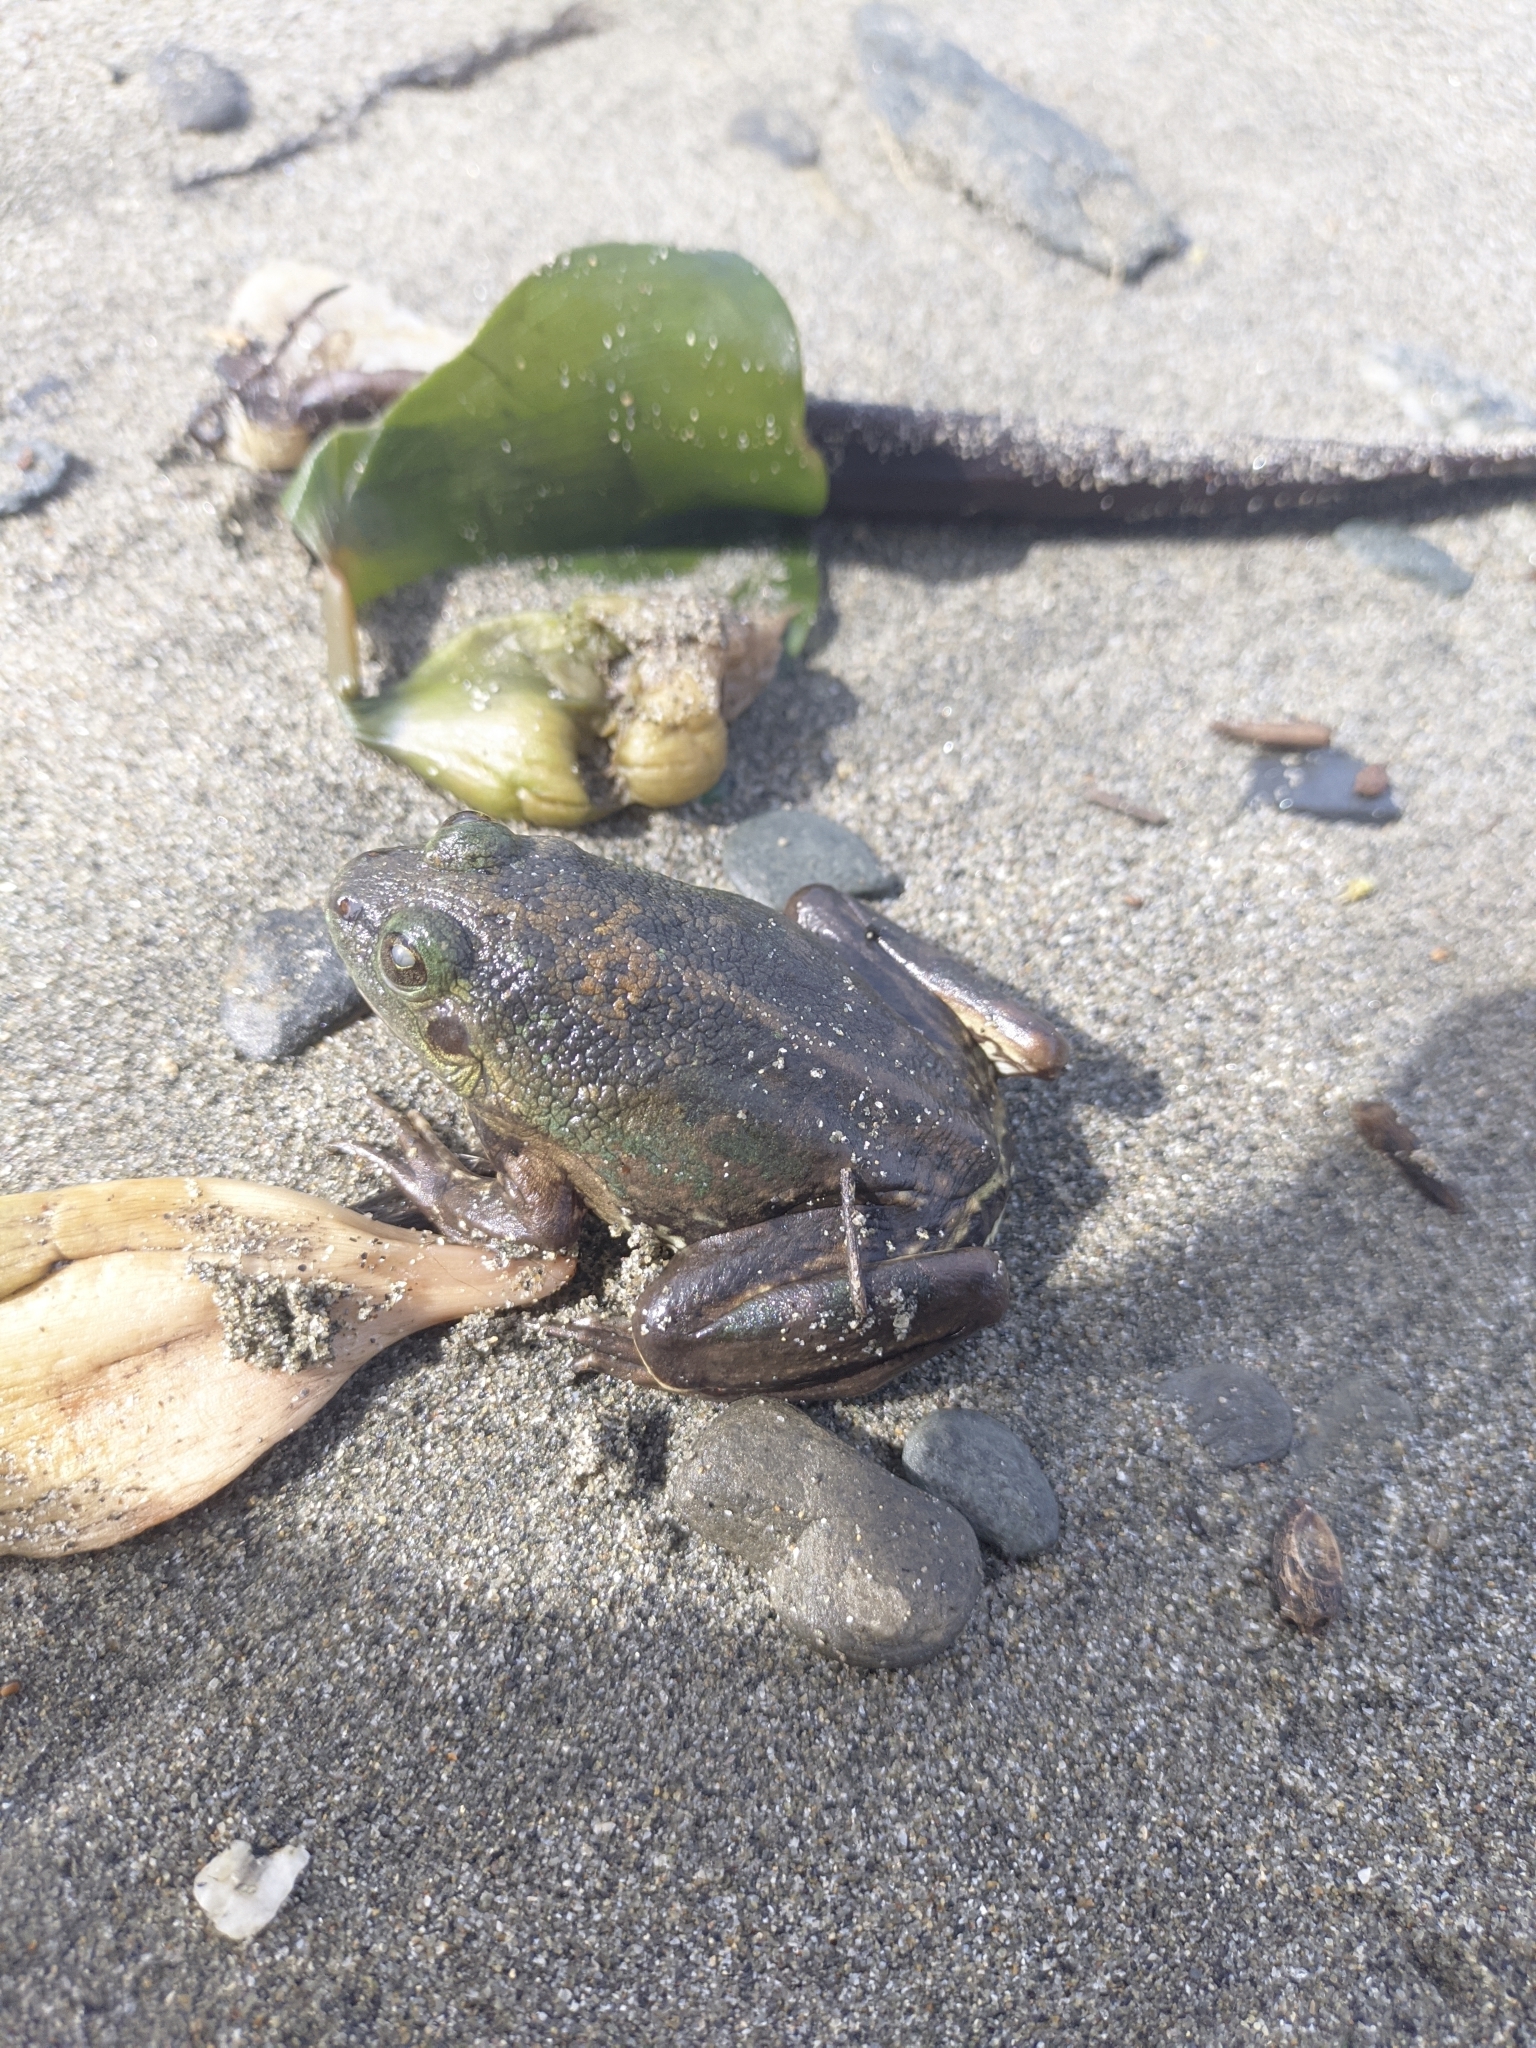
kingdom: Animalia
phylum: Chordata
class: Amphibia
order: Anura
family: Hylidae
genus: Pseudis
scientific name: Pseudis paradoxa
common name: Swimming frog
